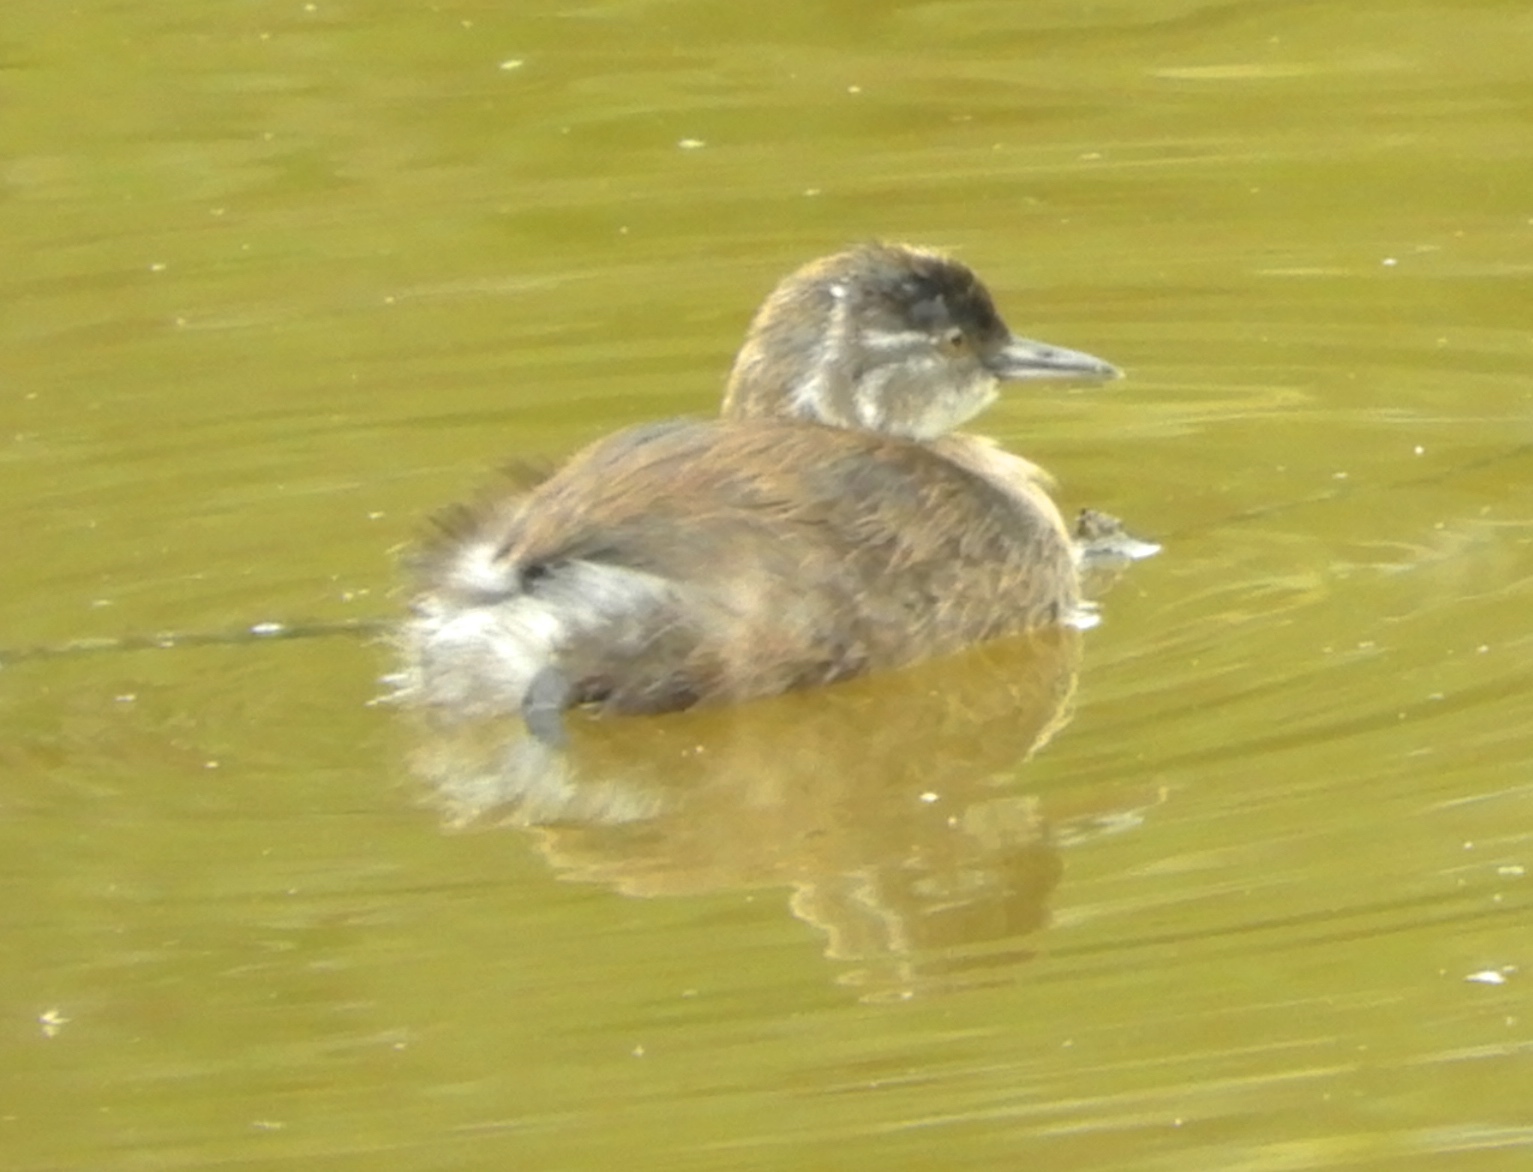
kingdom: Animalia
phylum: Chordata
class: Aves
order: Podicipediformes
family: Podicipedidae
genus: Tachybaptus
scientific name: Tachybaptus dominicus
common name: Least grebe
